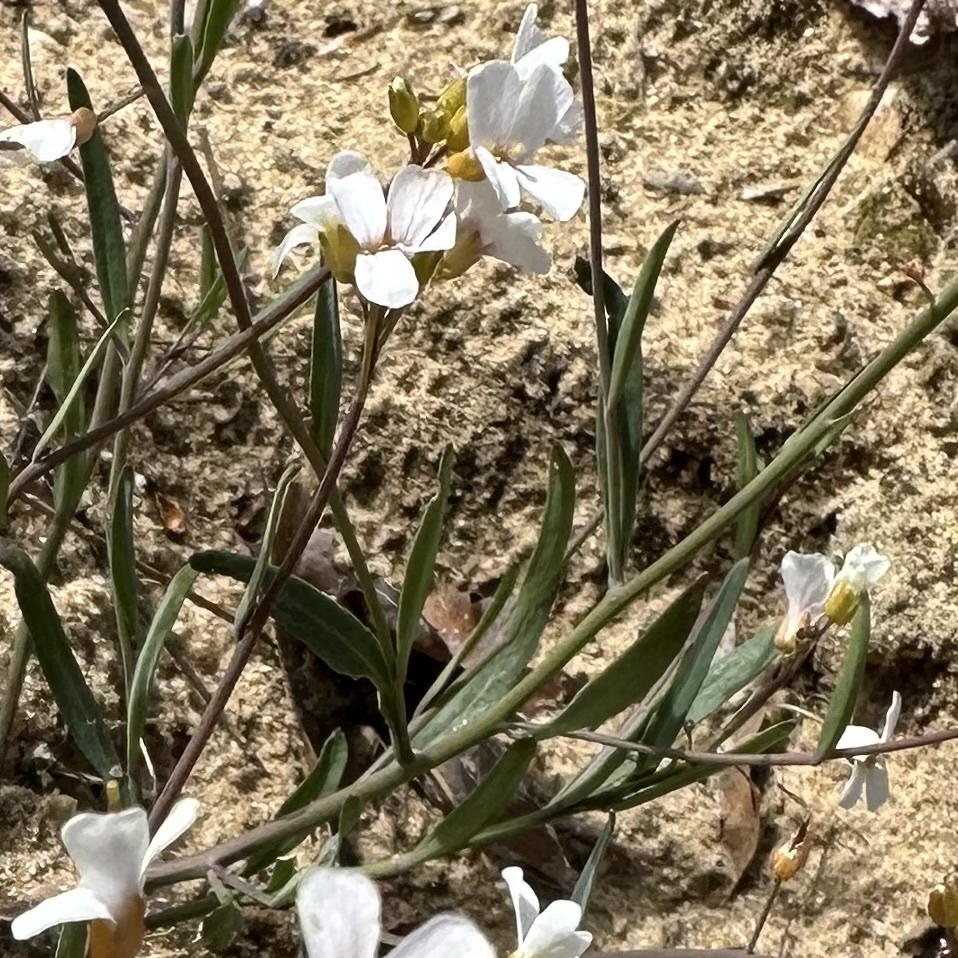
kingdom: Plantae
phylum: Tracheophyta
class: Magnoliopsida
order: Brassicales
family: Brassicaceae
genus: Arabidopsis
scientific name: Arabidopsis lyrata
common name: Lyrate rockcress
